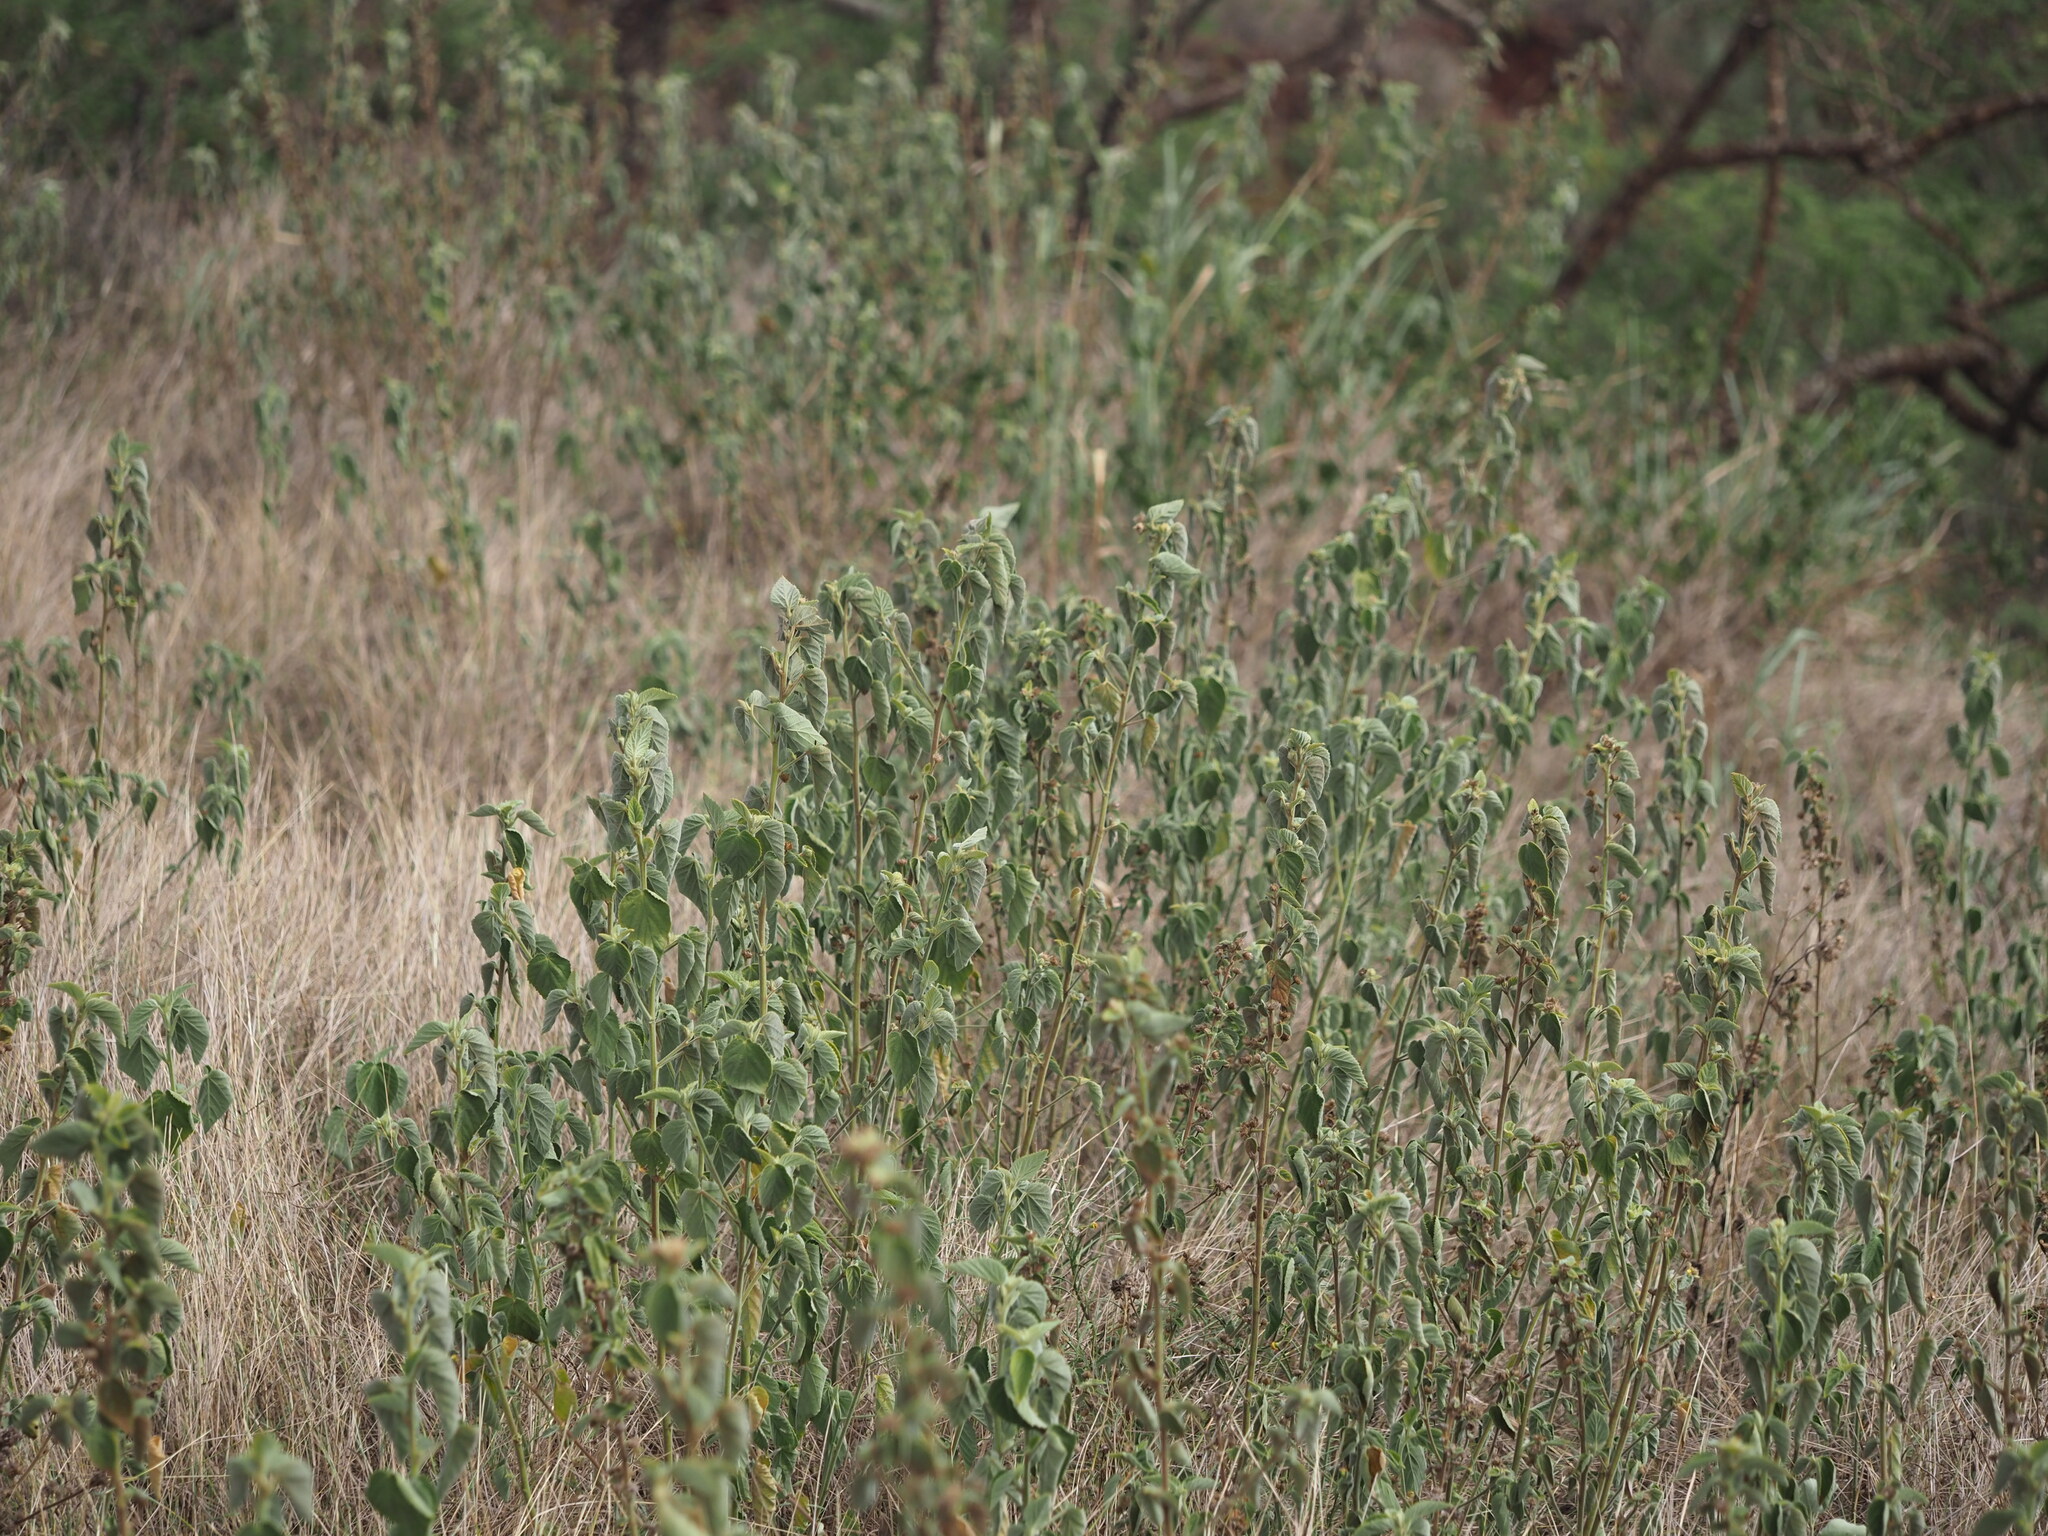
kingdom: Plantae
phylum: Tracheophyta
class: Magnoliopsida
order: Malvales
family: Malvaceae
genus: Sida
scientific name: Sida cordifolia
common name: Ilima
